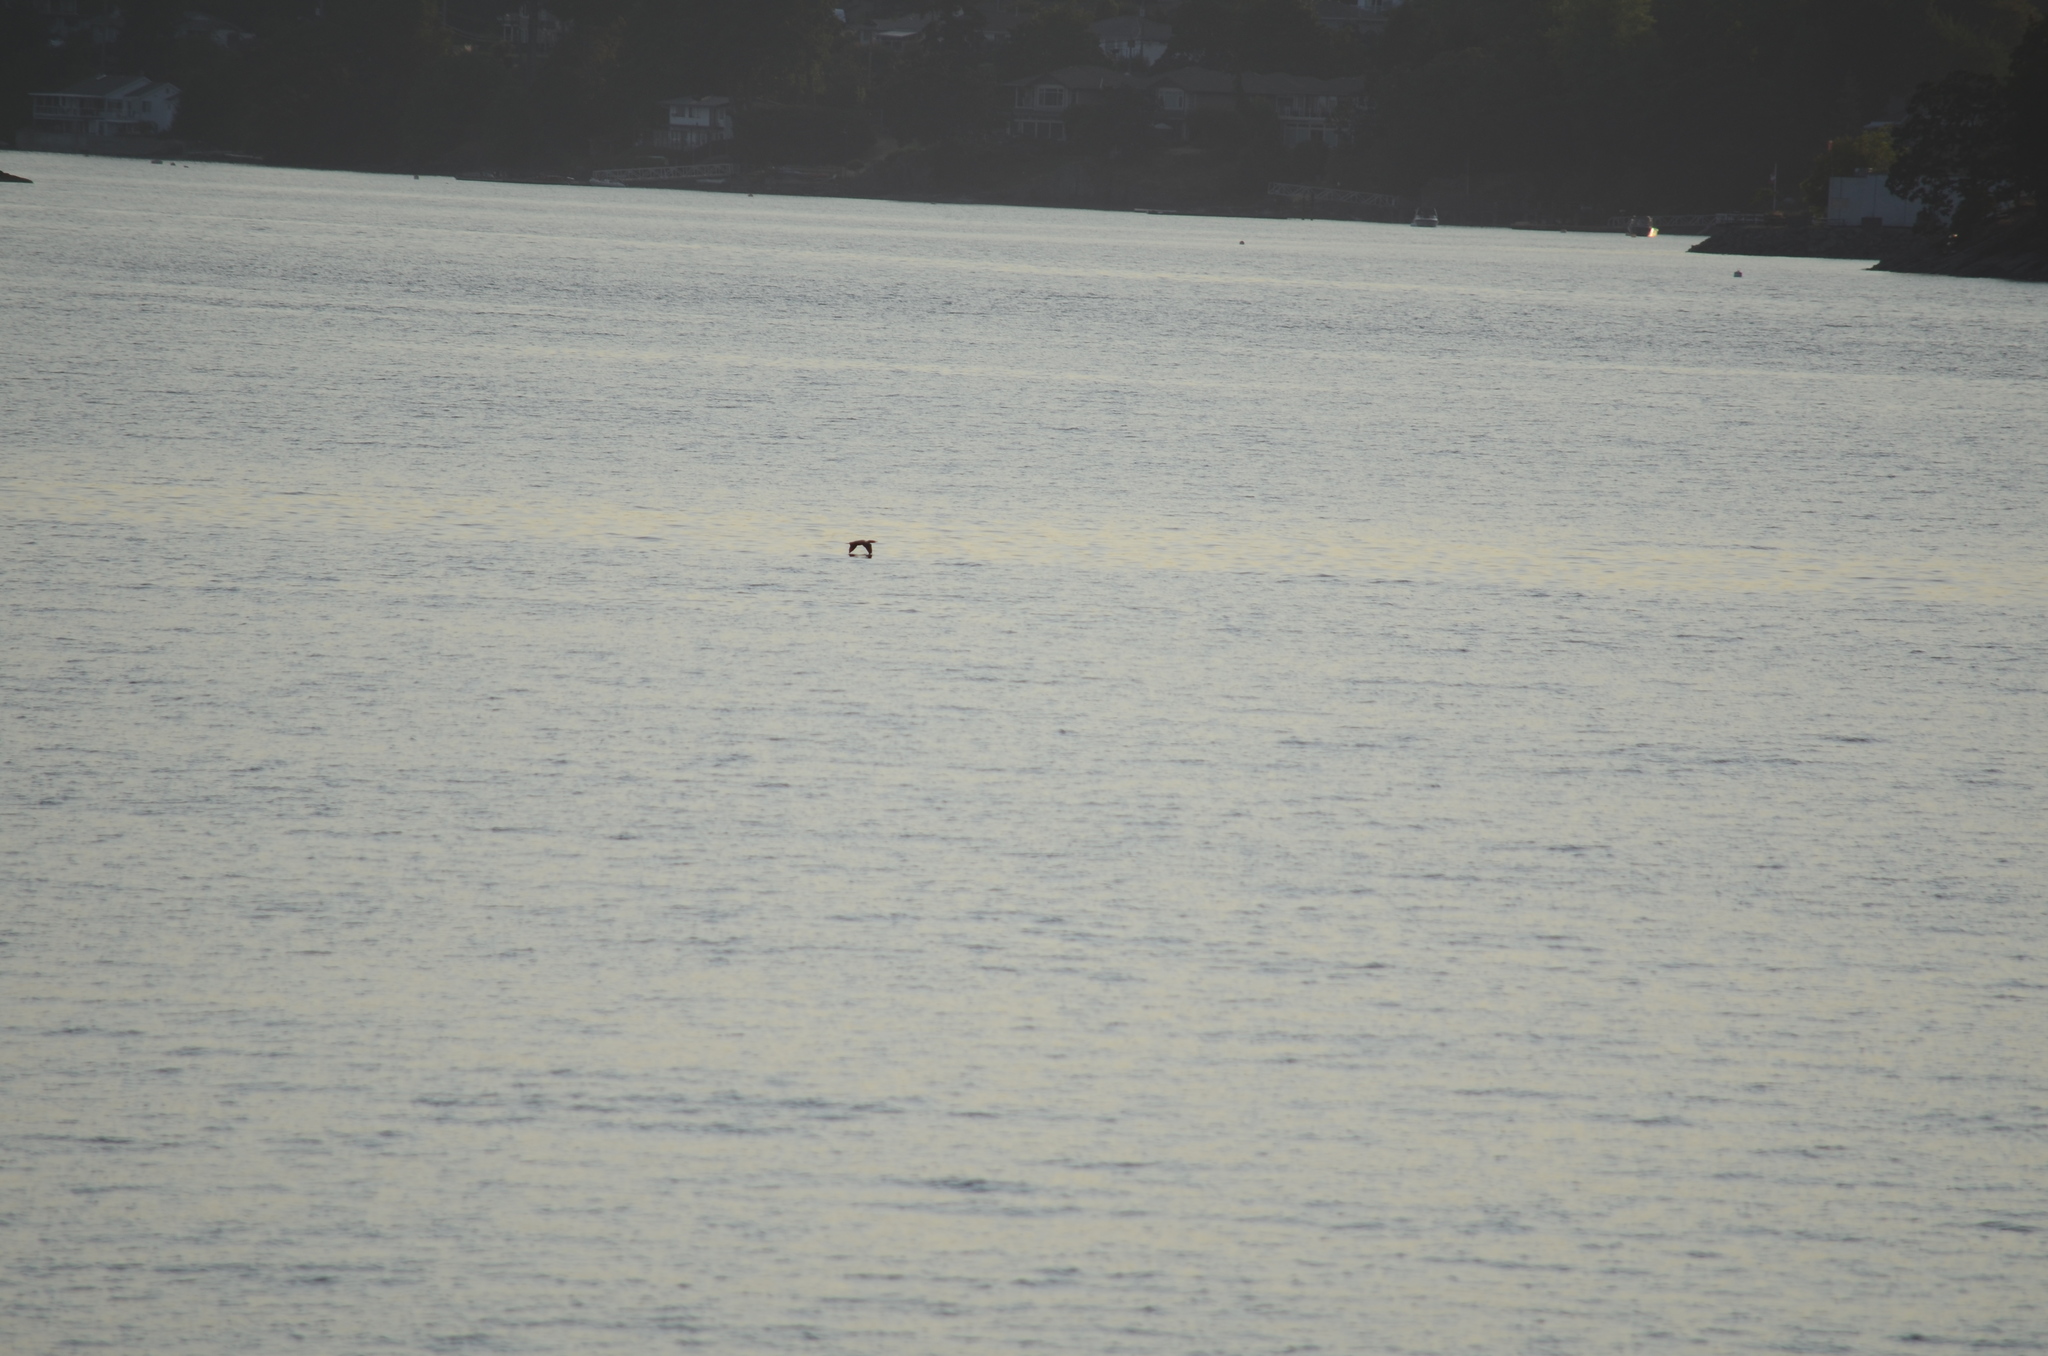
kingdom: Animalia
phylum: Chordata
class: Aves
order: Suliformes
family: Phalacrocoracidae
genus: Phalacrocorax
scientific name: Phalacrocorax auritus
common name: Double-crested cormorant
